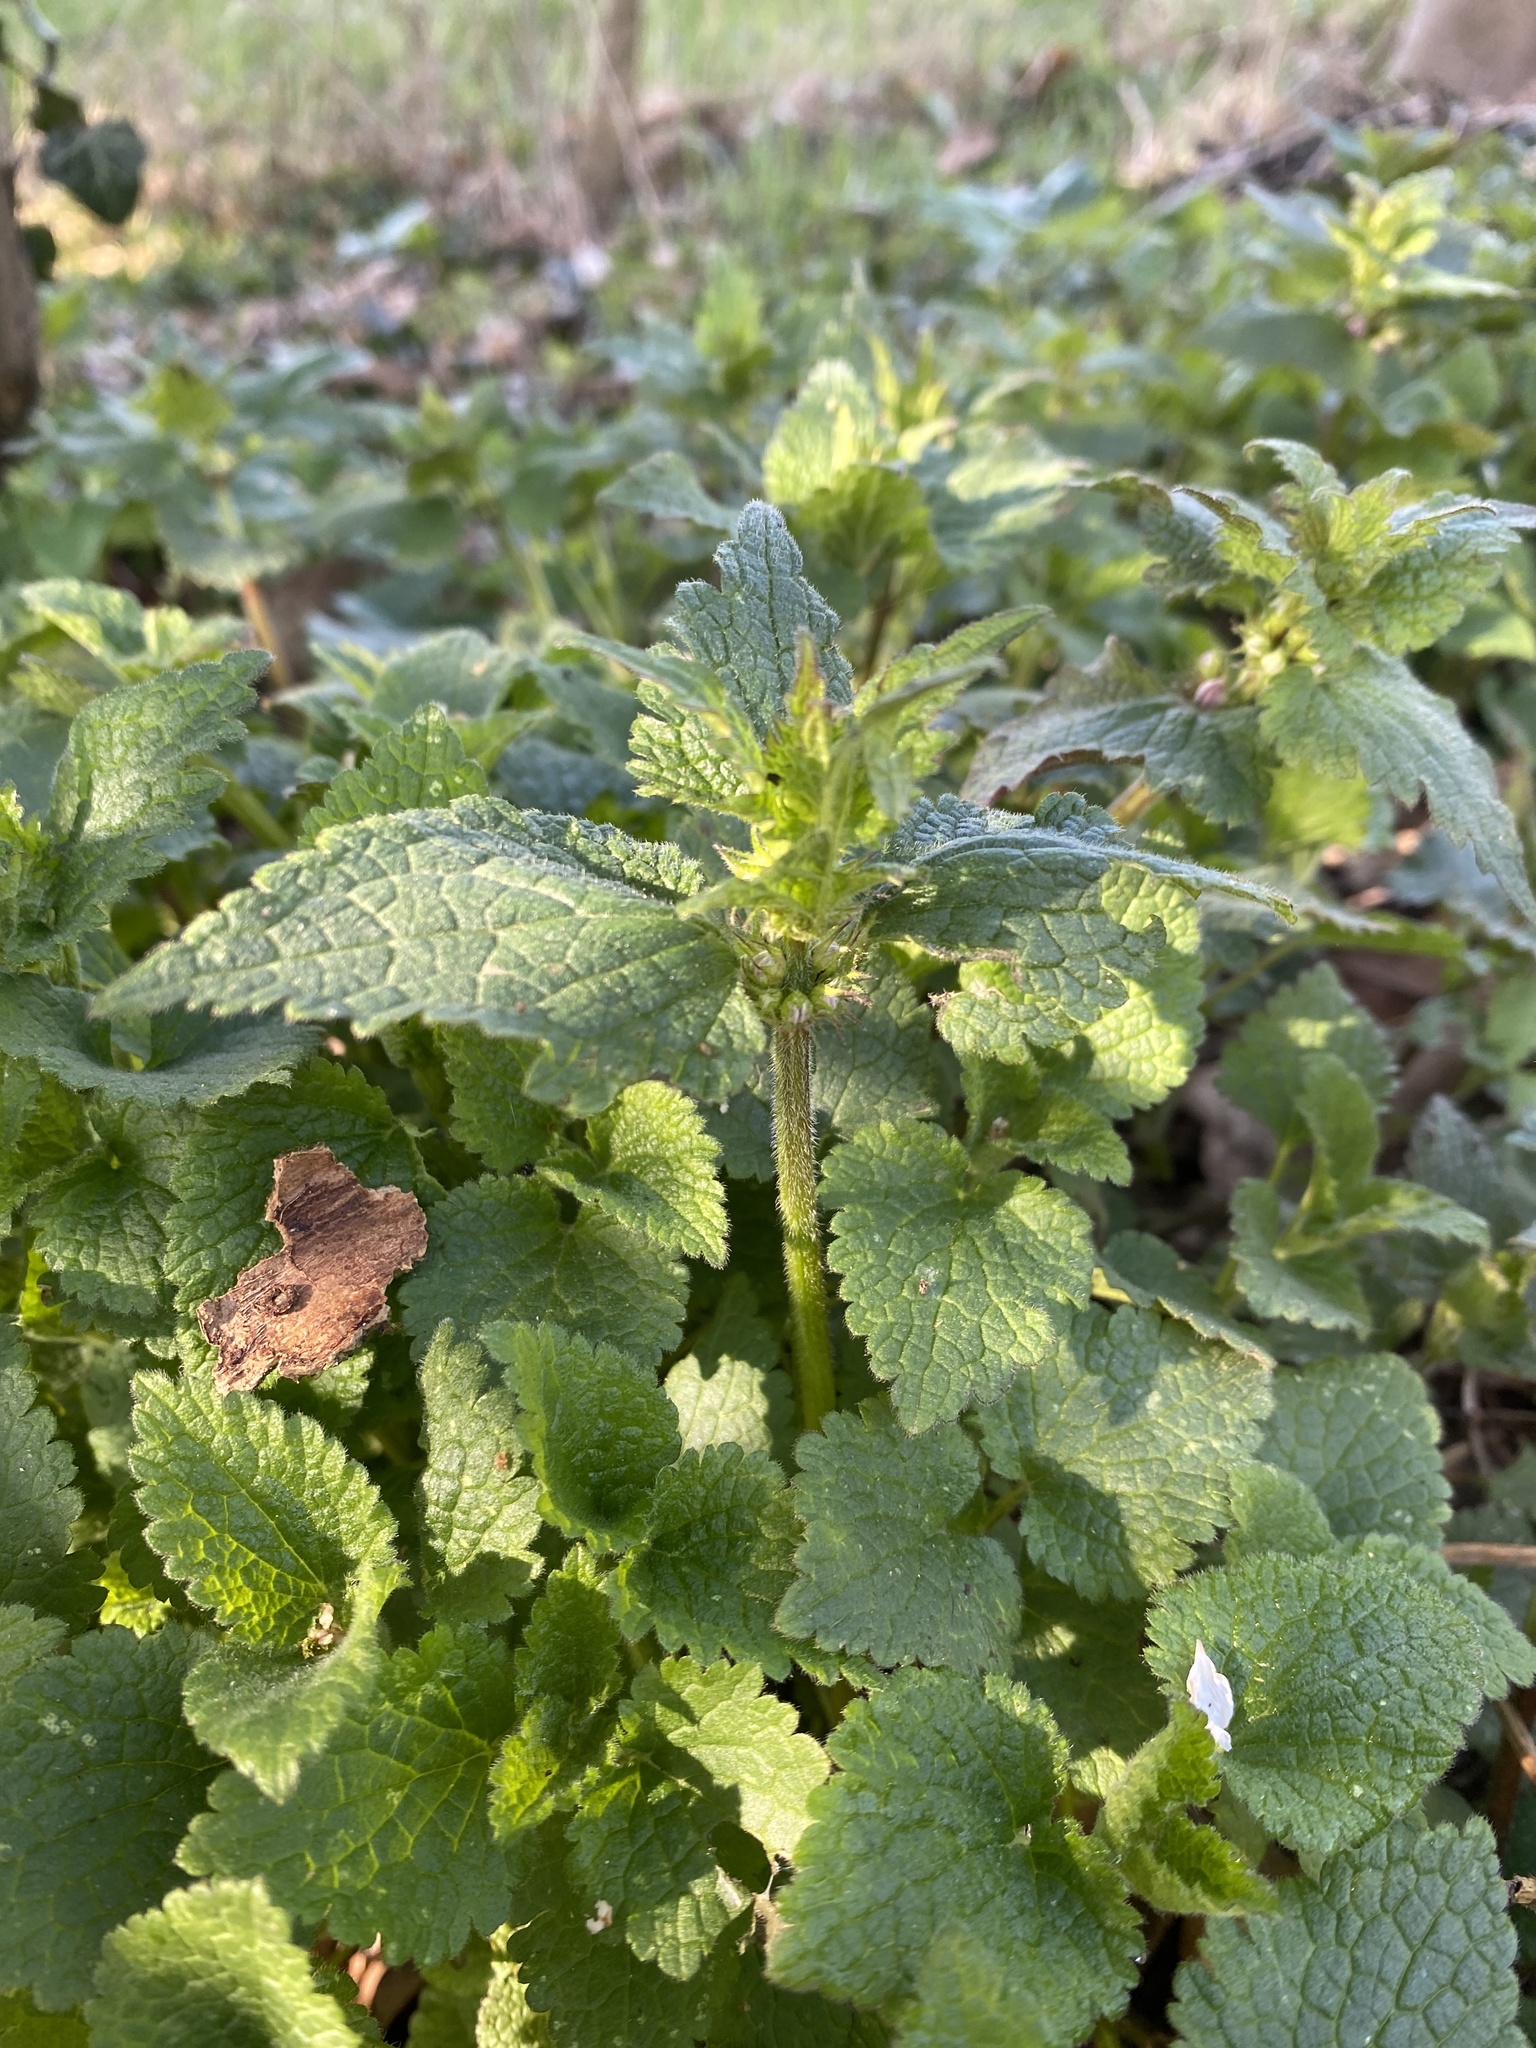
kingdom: Plantae
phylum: Tracheophyta
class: Magnoliopsida
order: Lamiales
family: Lamiaceae
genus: Lamium
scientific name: Lamium album
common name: White dead-nettle
